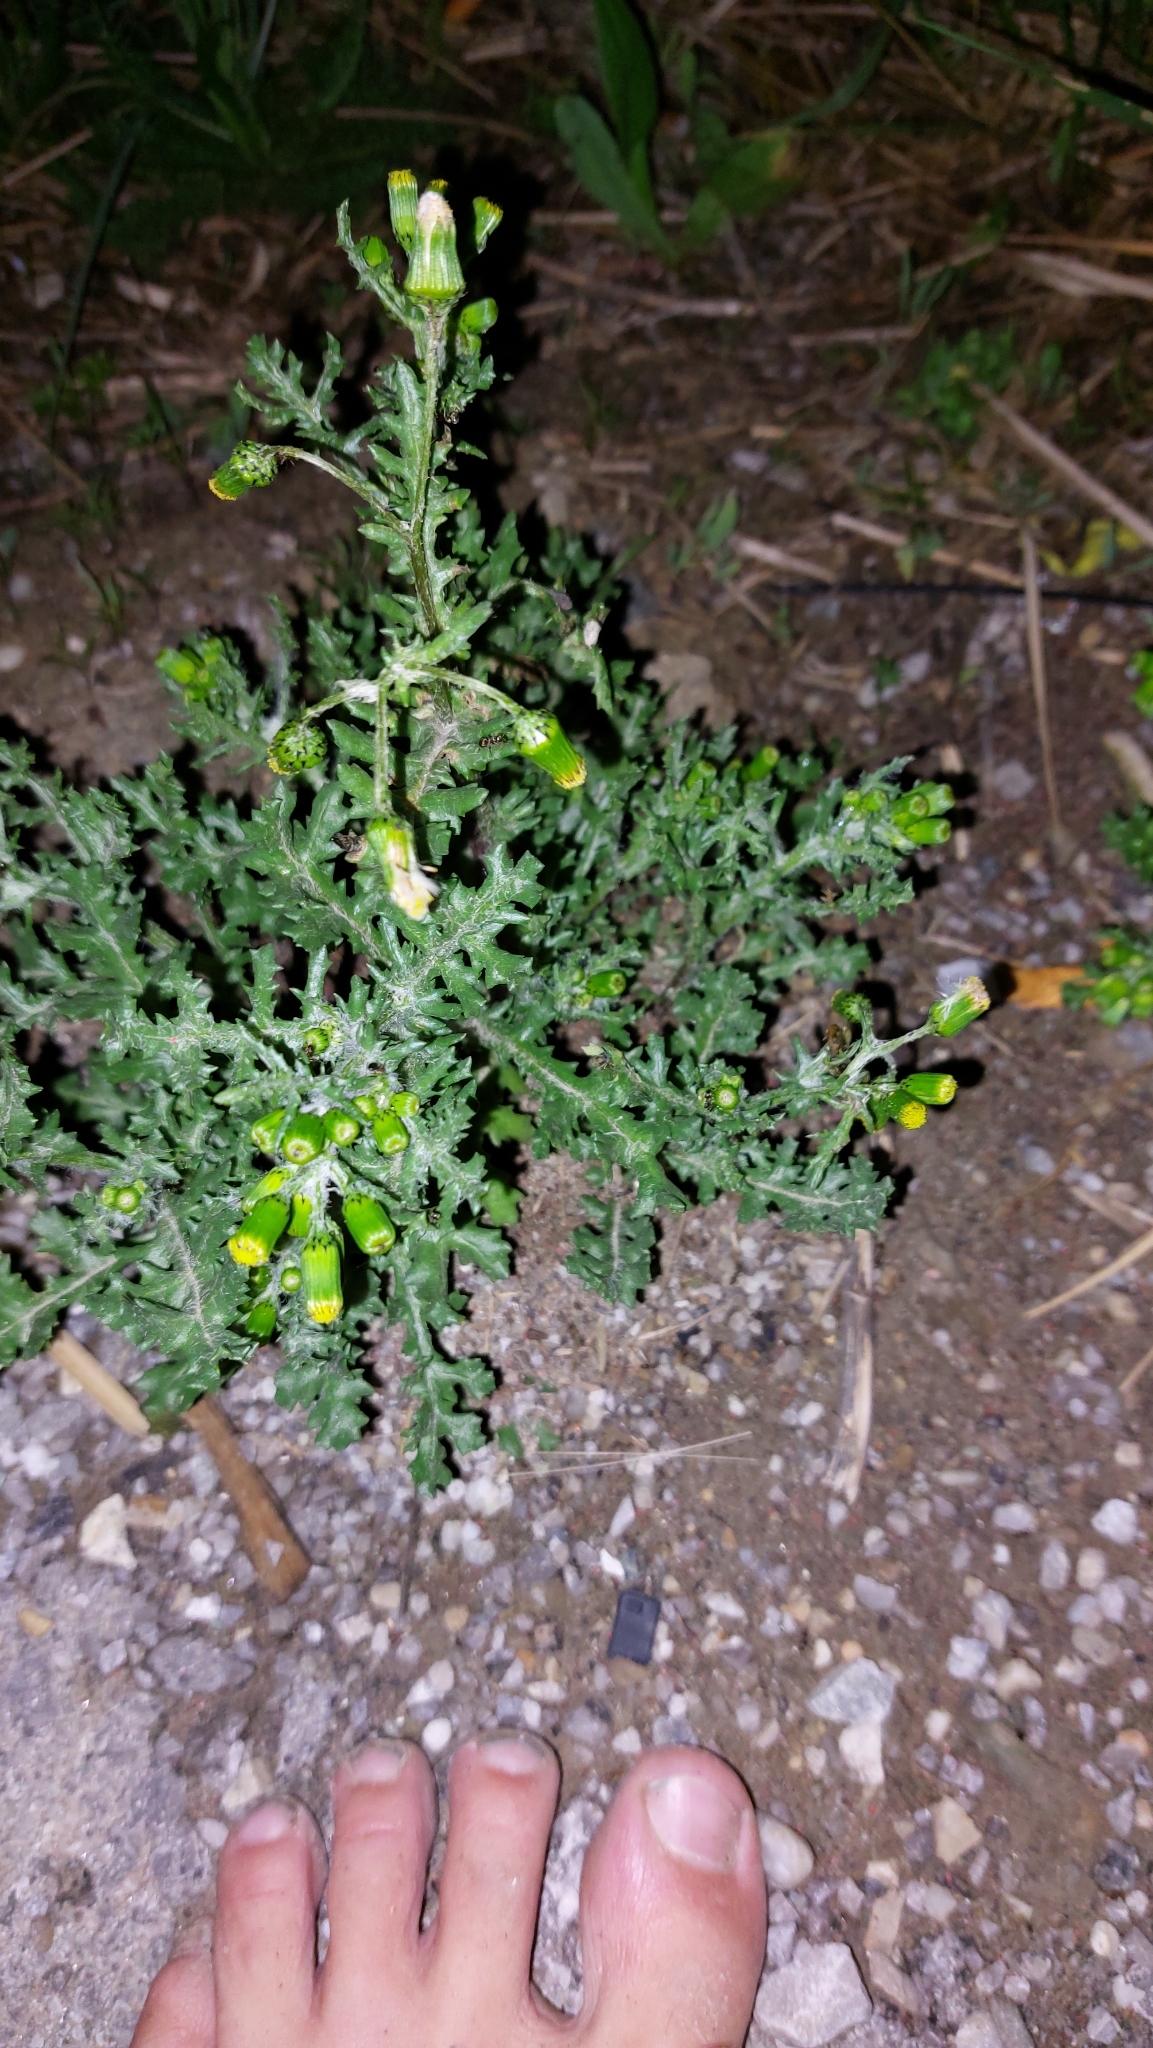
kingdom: Plantae
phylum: Tracheophyta
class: Magnoliopsida
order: Asterales
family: Asteraceae
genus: Senecio
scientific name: Senecio vulgaris
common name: Old-man-in-the-spring
